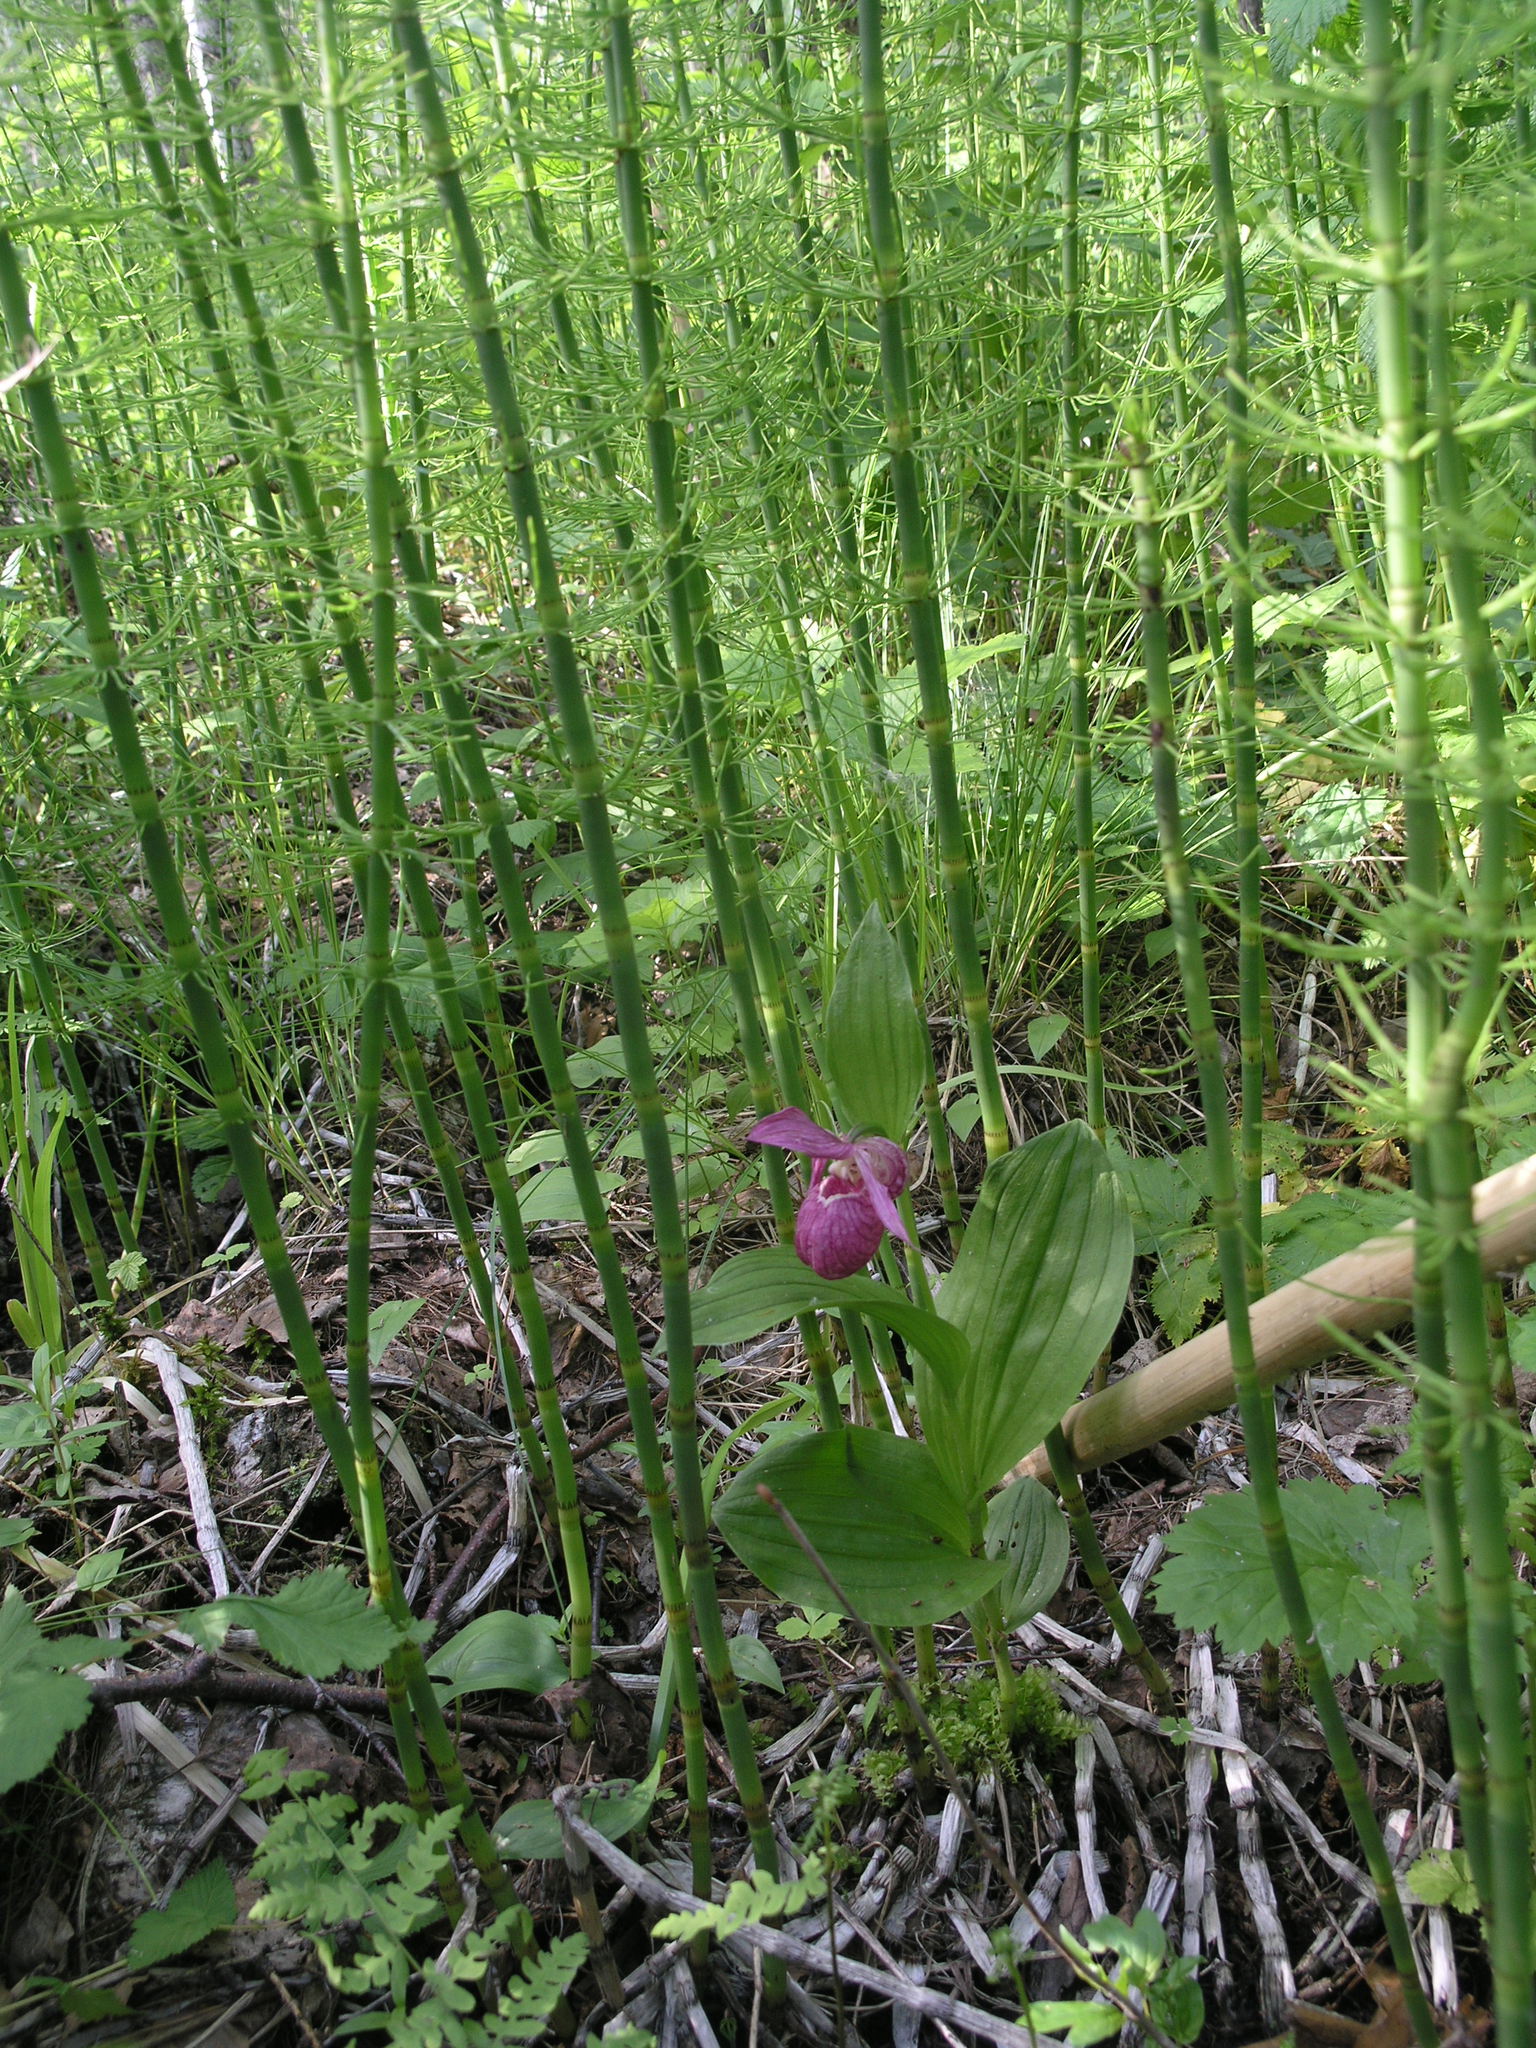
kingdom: Plantae
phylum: Tracheophyta
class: Liliopsida
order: Asparagales
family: Orchidaceae
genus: Cypripedium
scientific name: Cypripedium macranthos
